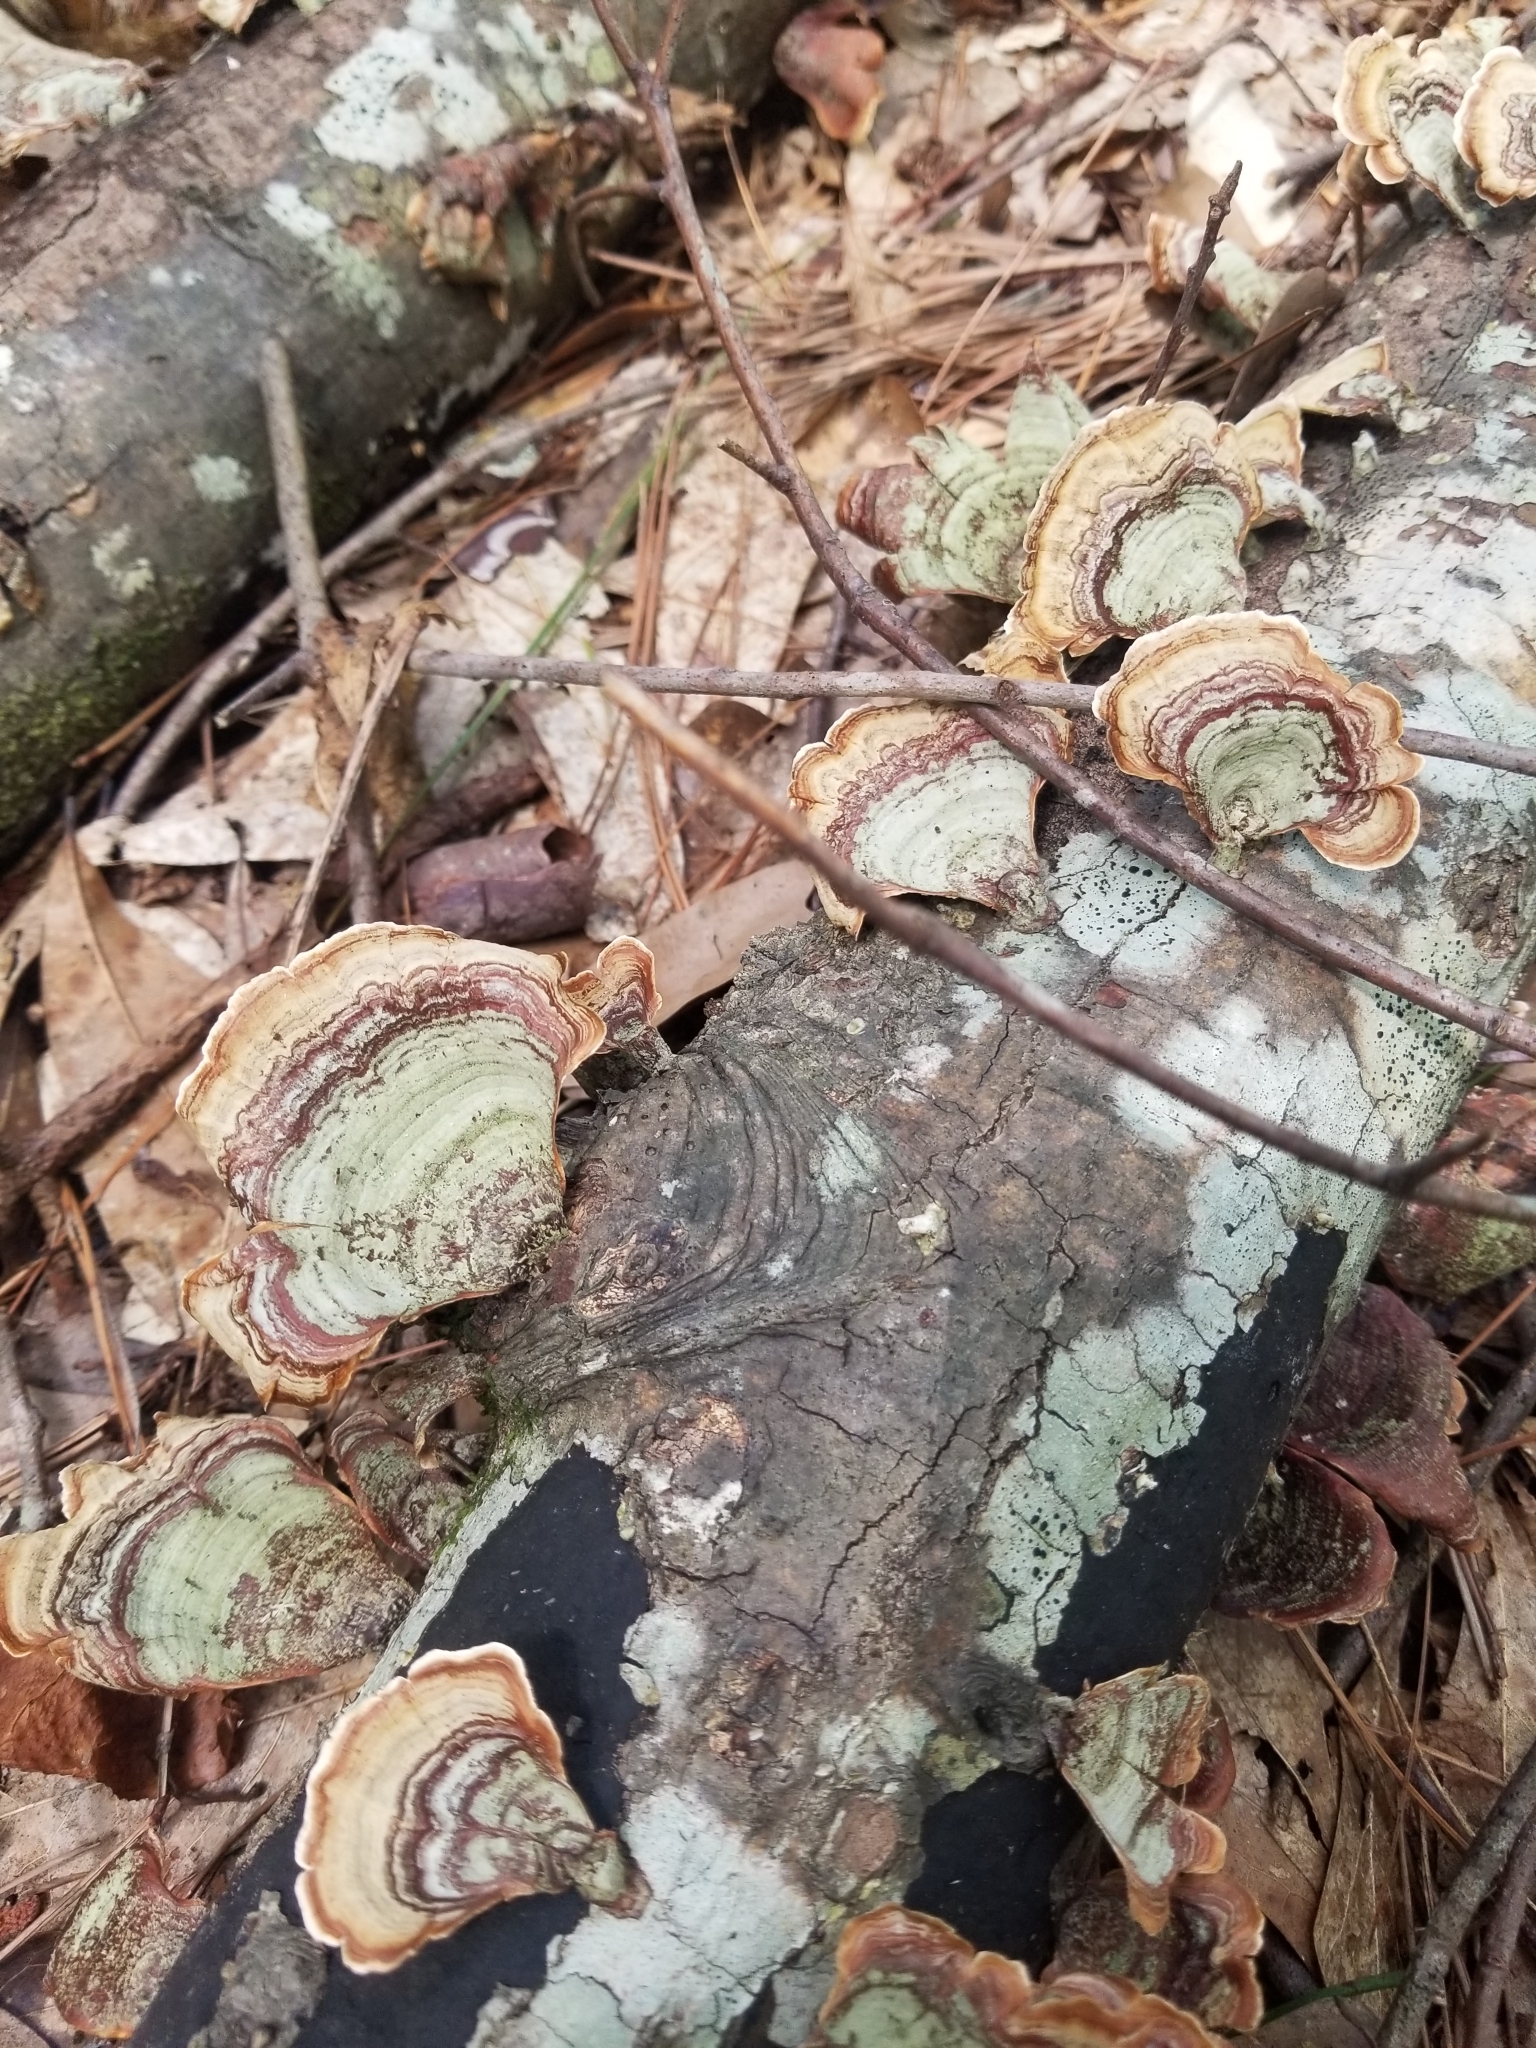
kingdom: Fungi
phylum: Basidiomycota
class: Agaricomycetes
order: Russulales
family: Stereaceae
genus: Stereum
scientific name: Stereum ostrea
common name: False turkeytail
